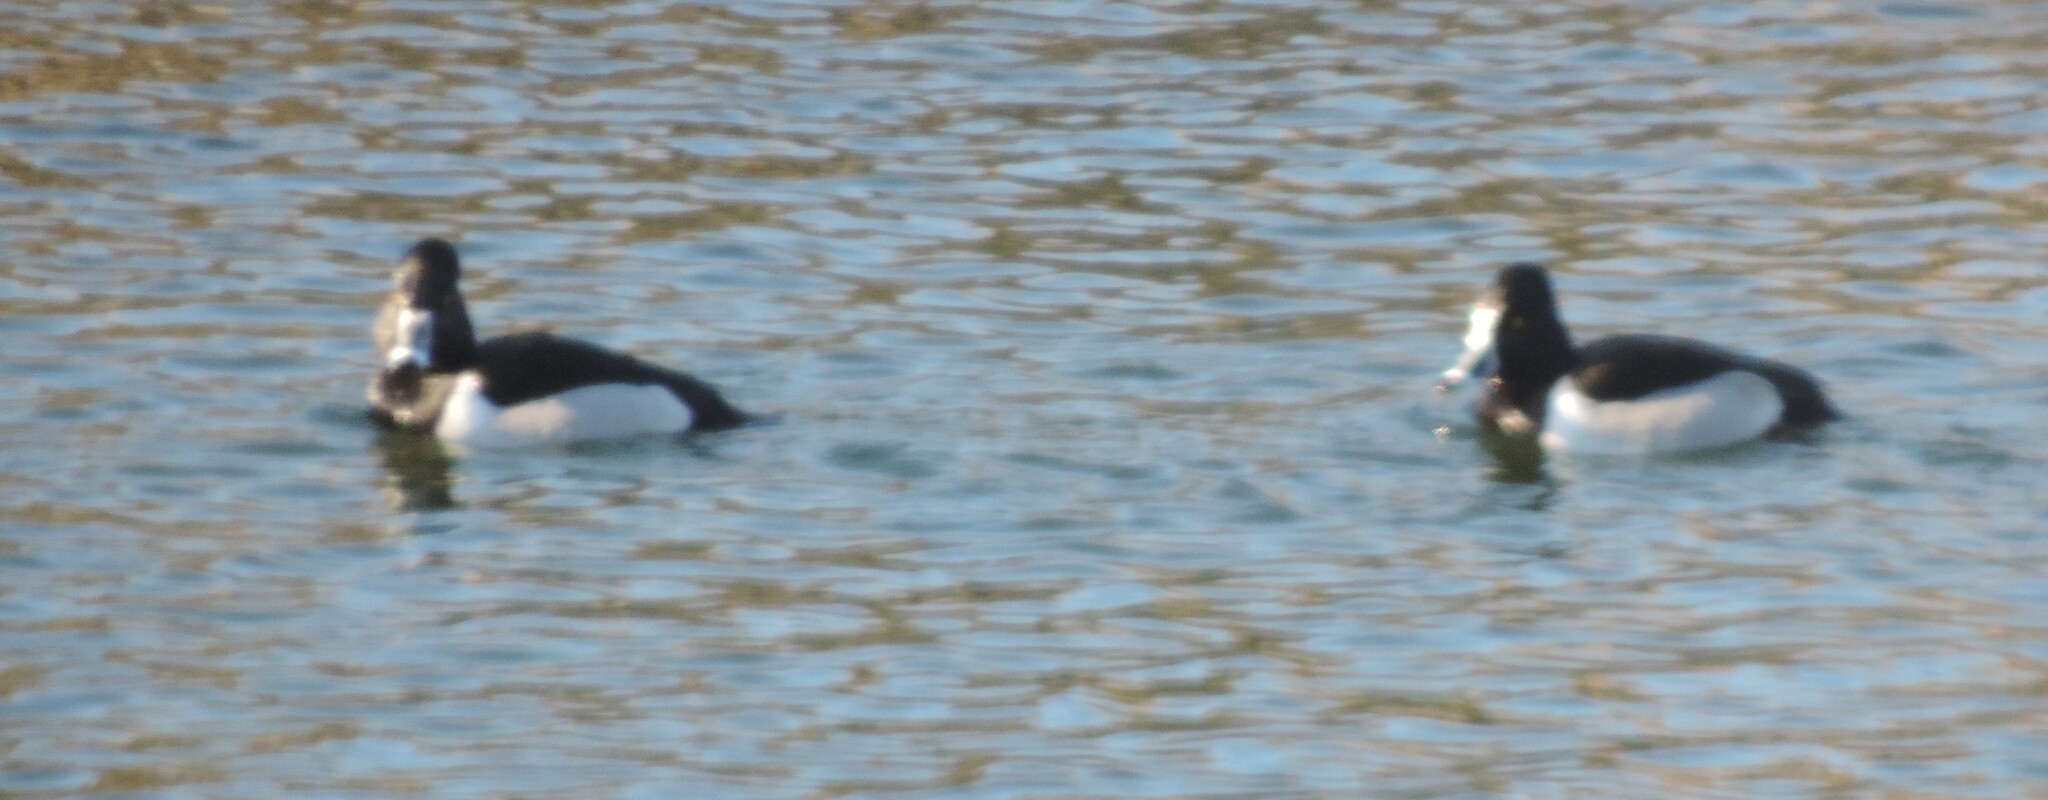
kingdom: Animalia
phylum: Chordata
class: Aves
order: Anseriformes
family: Anatidae
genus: Aythya
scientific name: Aythya collaris
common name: Ring-necked duck
